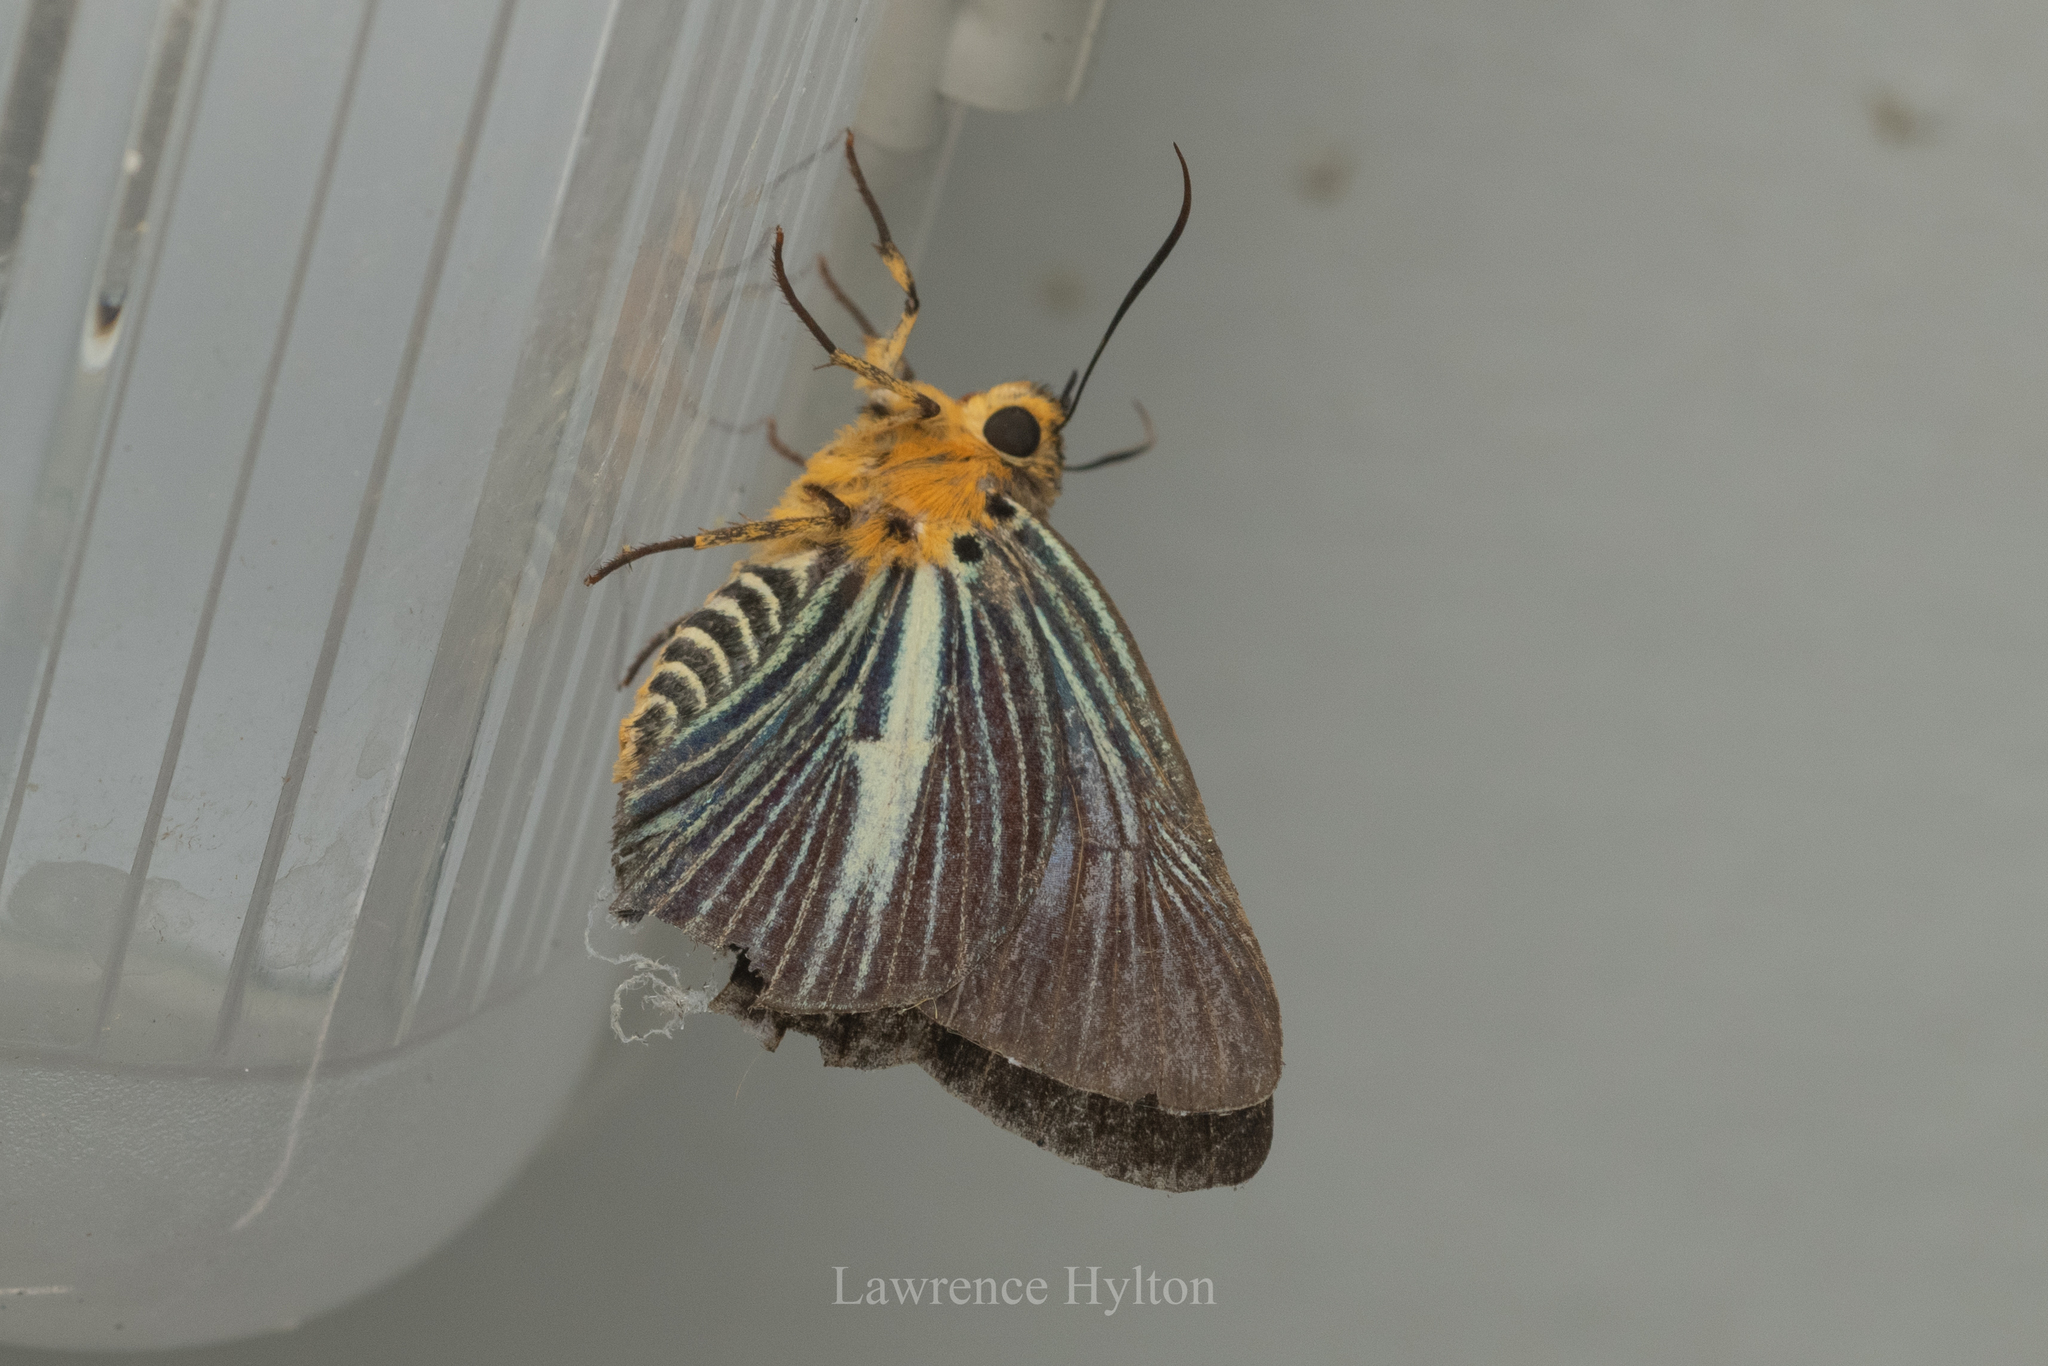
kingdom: Animalia
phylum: Arthropoda
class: Insecta
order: Lepidoptera
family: Hesperiidae
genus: Bibasis
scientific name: Bibasis gomata
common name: Pale green awlet
